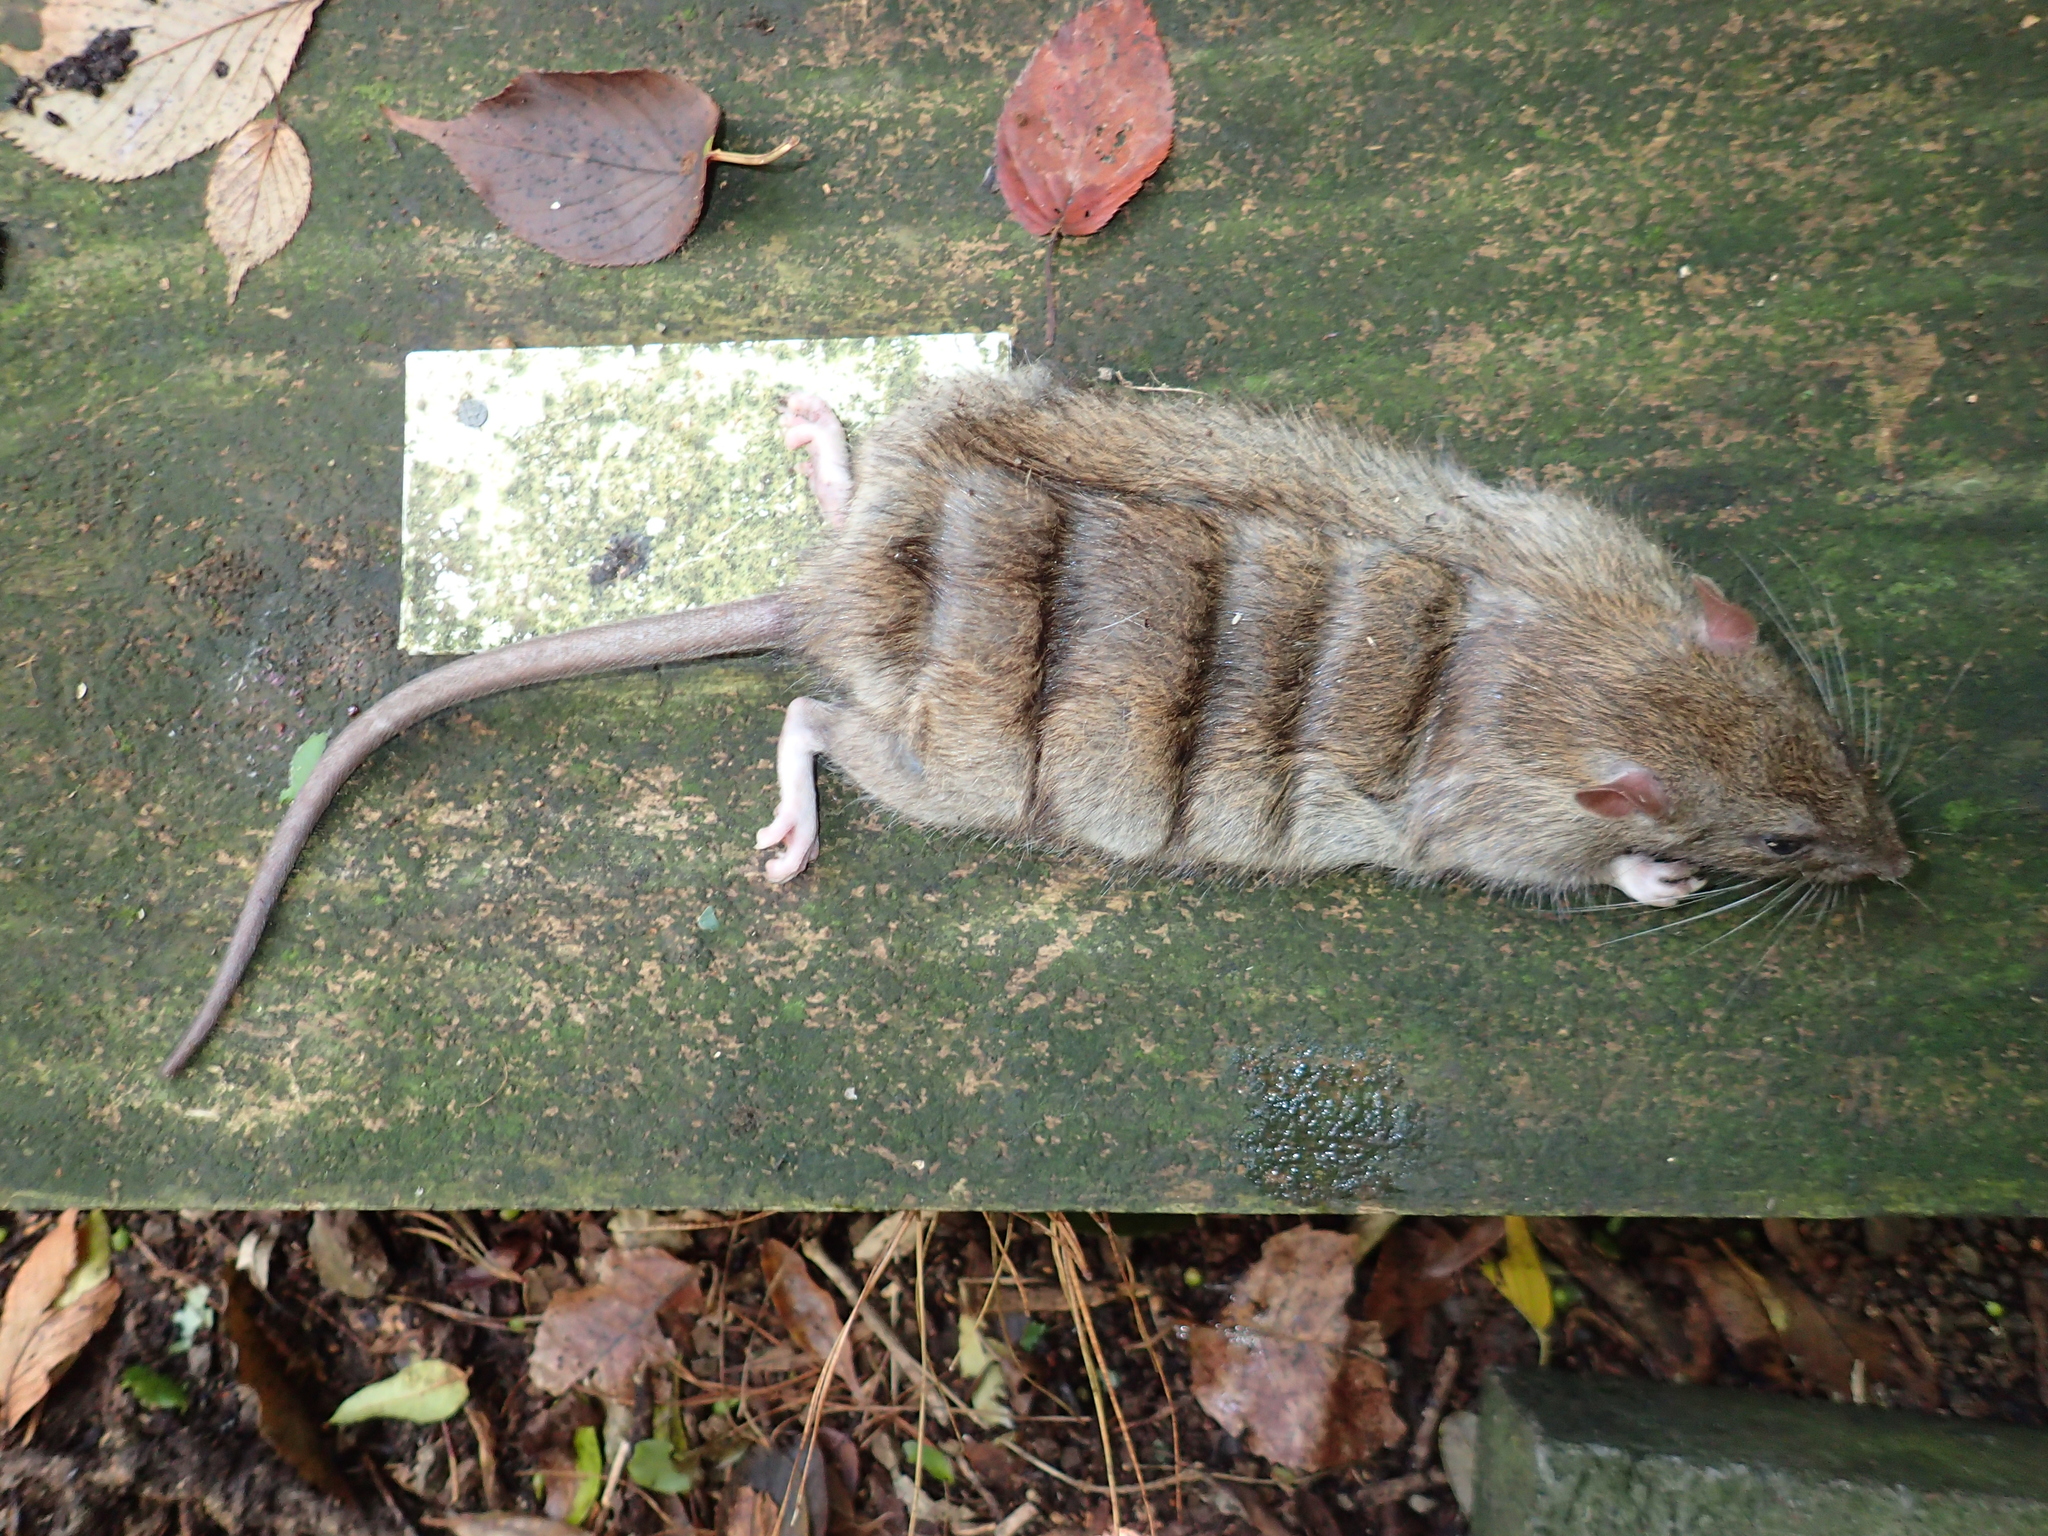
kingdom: Animalia
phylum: Chordata
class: Mammalia
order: Rodentia
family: Muridae
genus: Rattus
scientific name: Rattus norvegicus
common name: Brown rat
